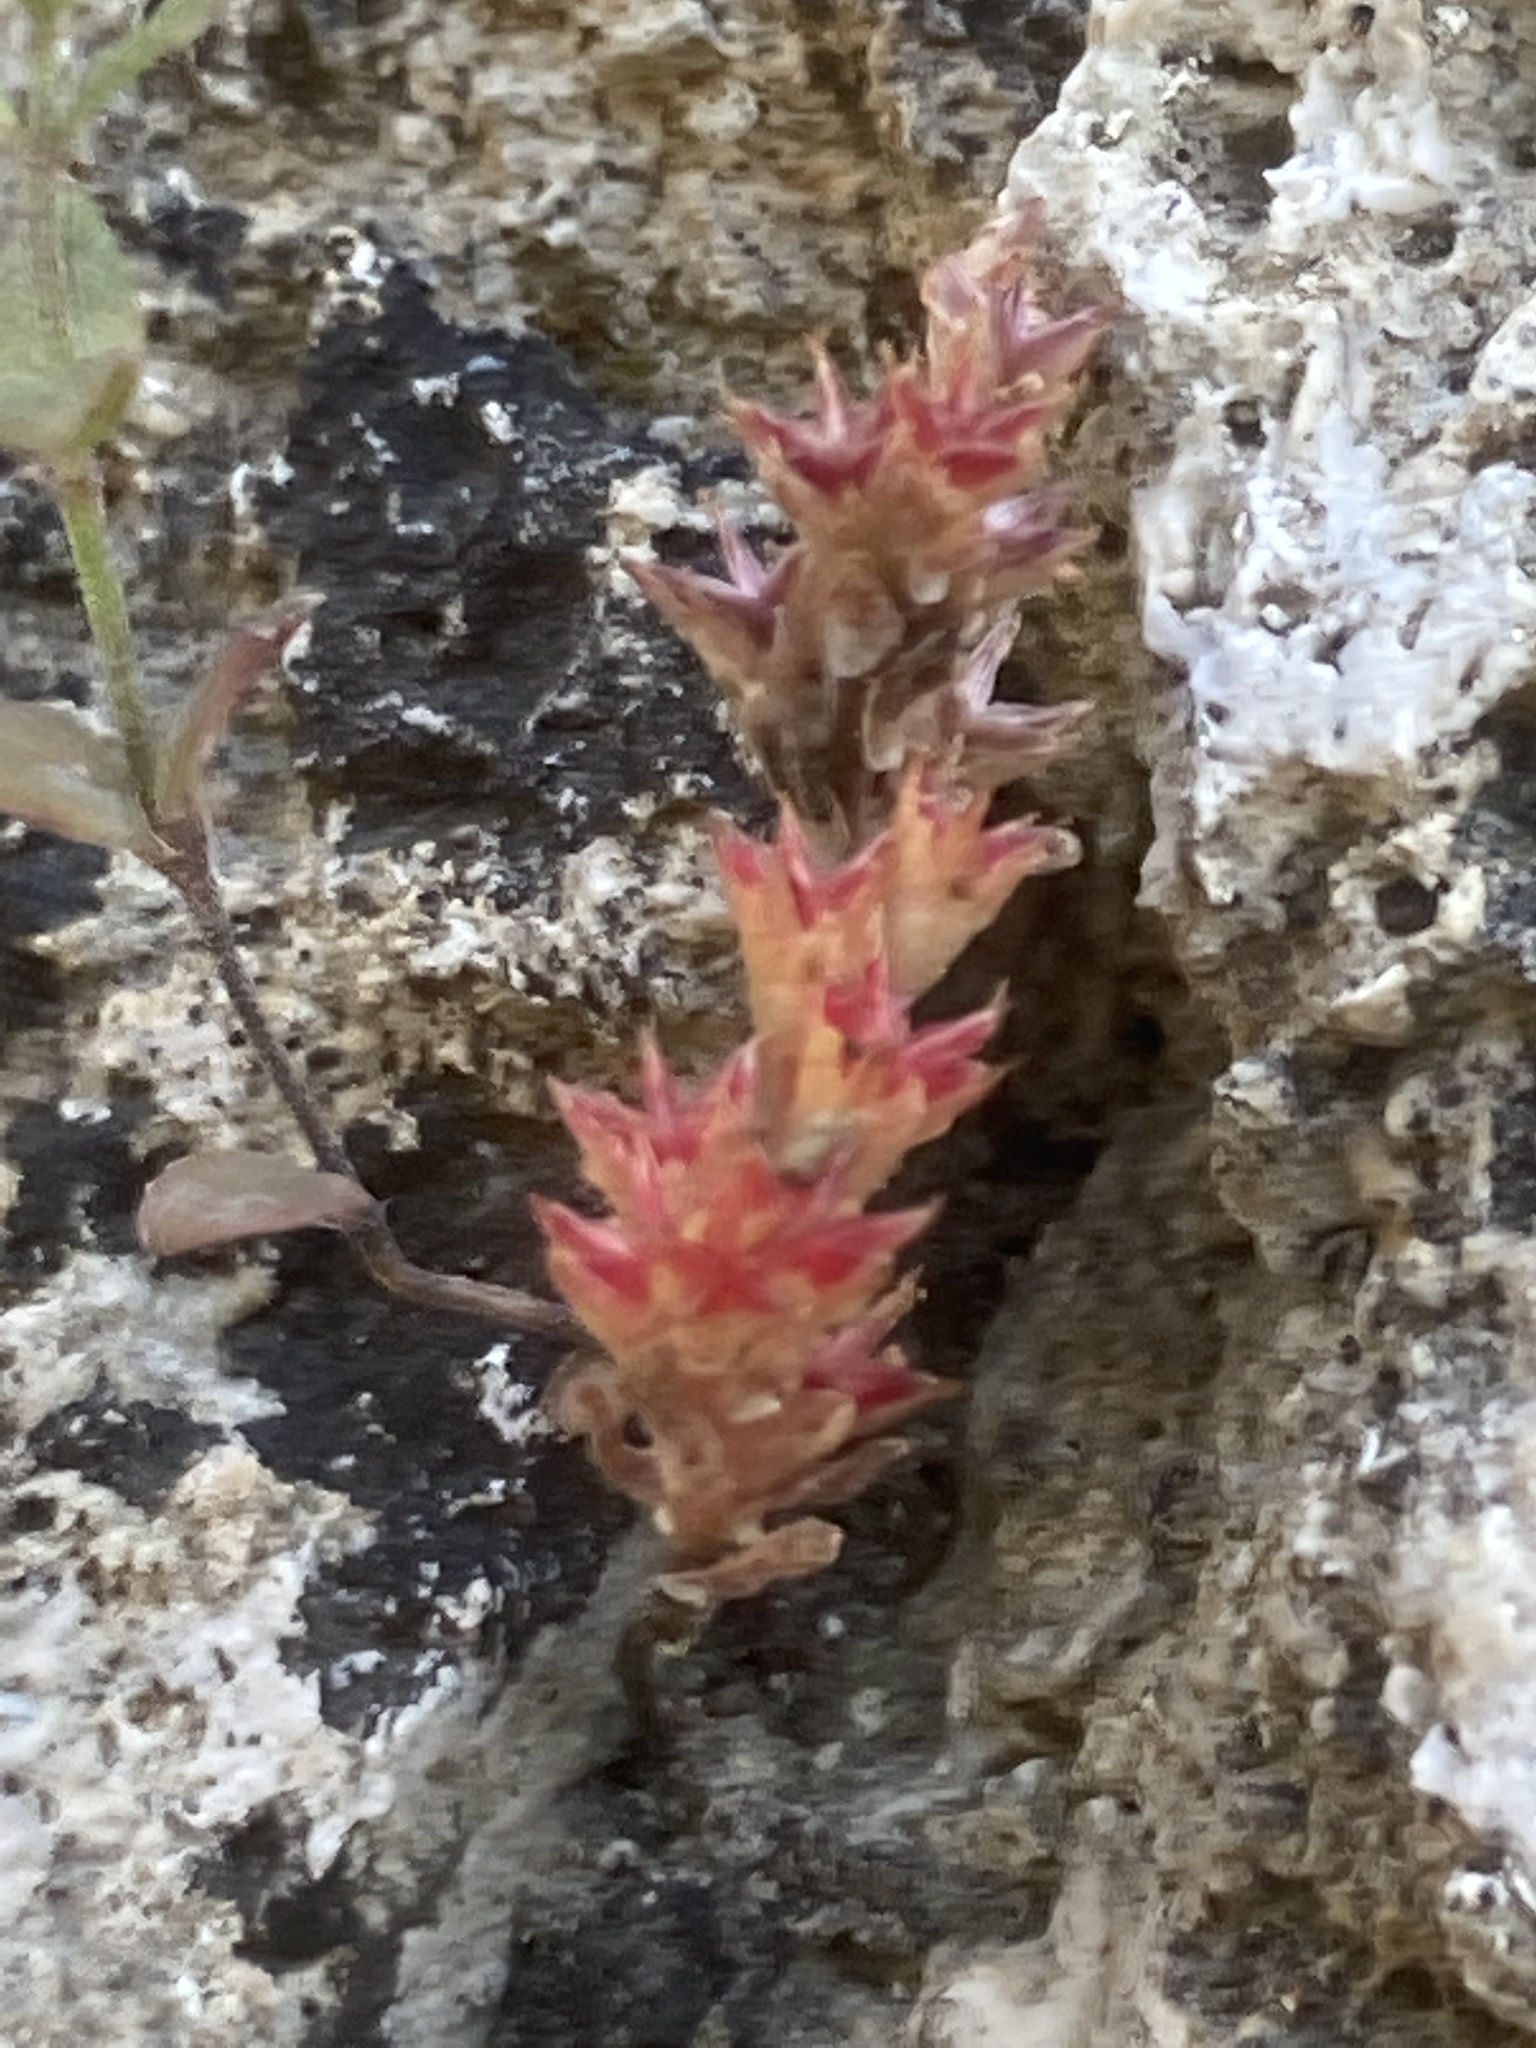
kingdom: Plantae
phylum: Tracheophyta
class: Magnoliopsida
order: Saxifragales
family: Crassulaceae
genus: Sedum
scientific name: Sedum litoreum
